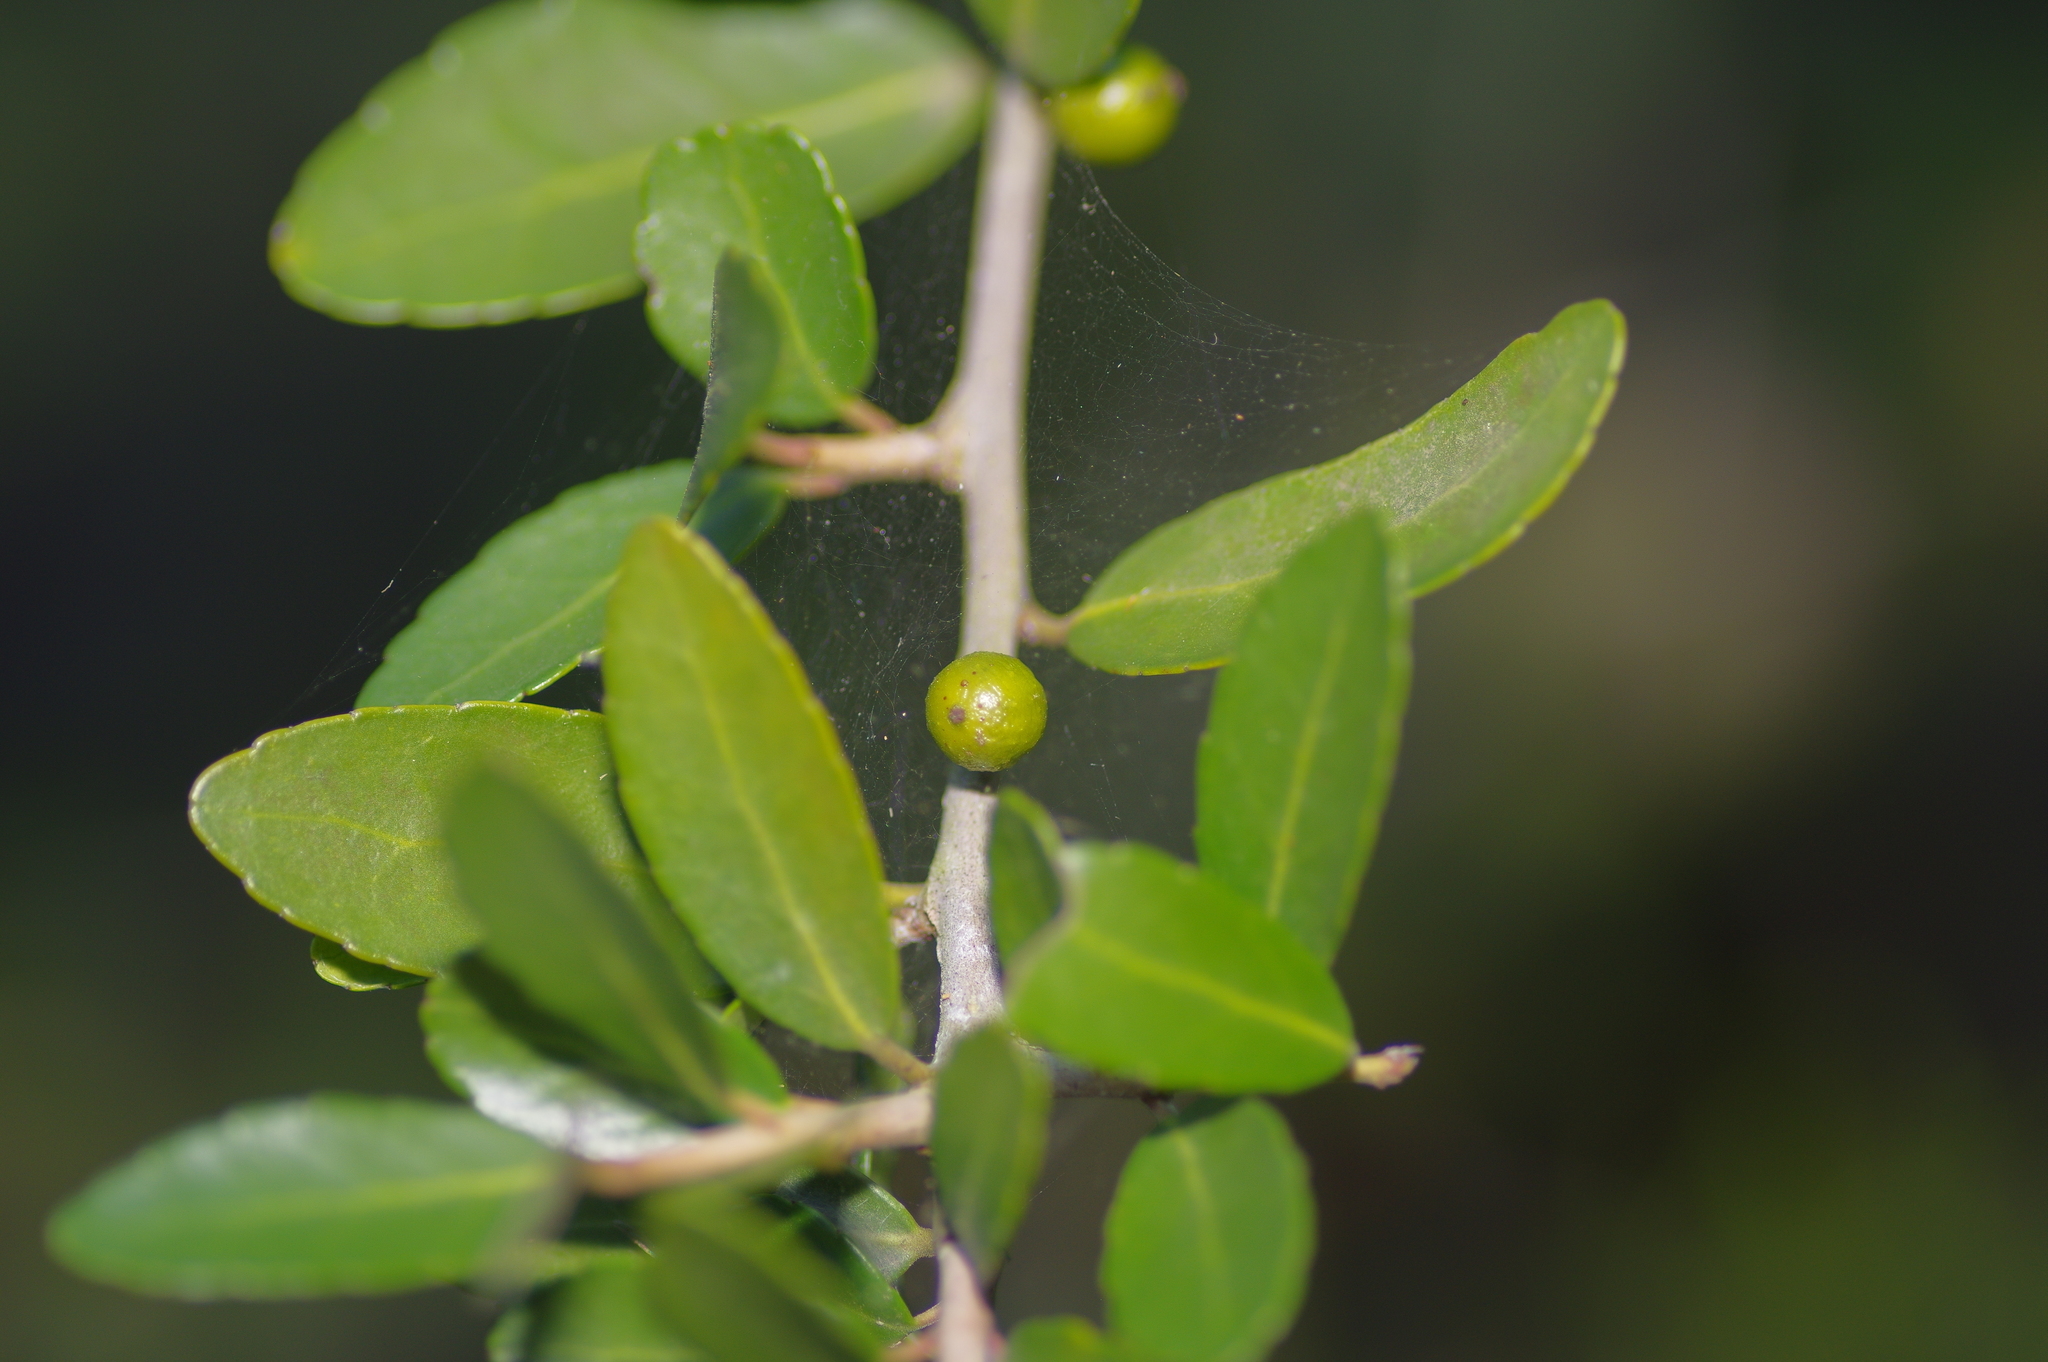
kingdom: Plantae
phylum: Tracheophyta
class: Magnoliopsida
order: Aquifoliales
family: Aquifoliaceae
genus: Ilex
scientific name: Ilex vomitoria
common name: Yaupon holly
